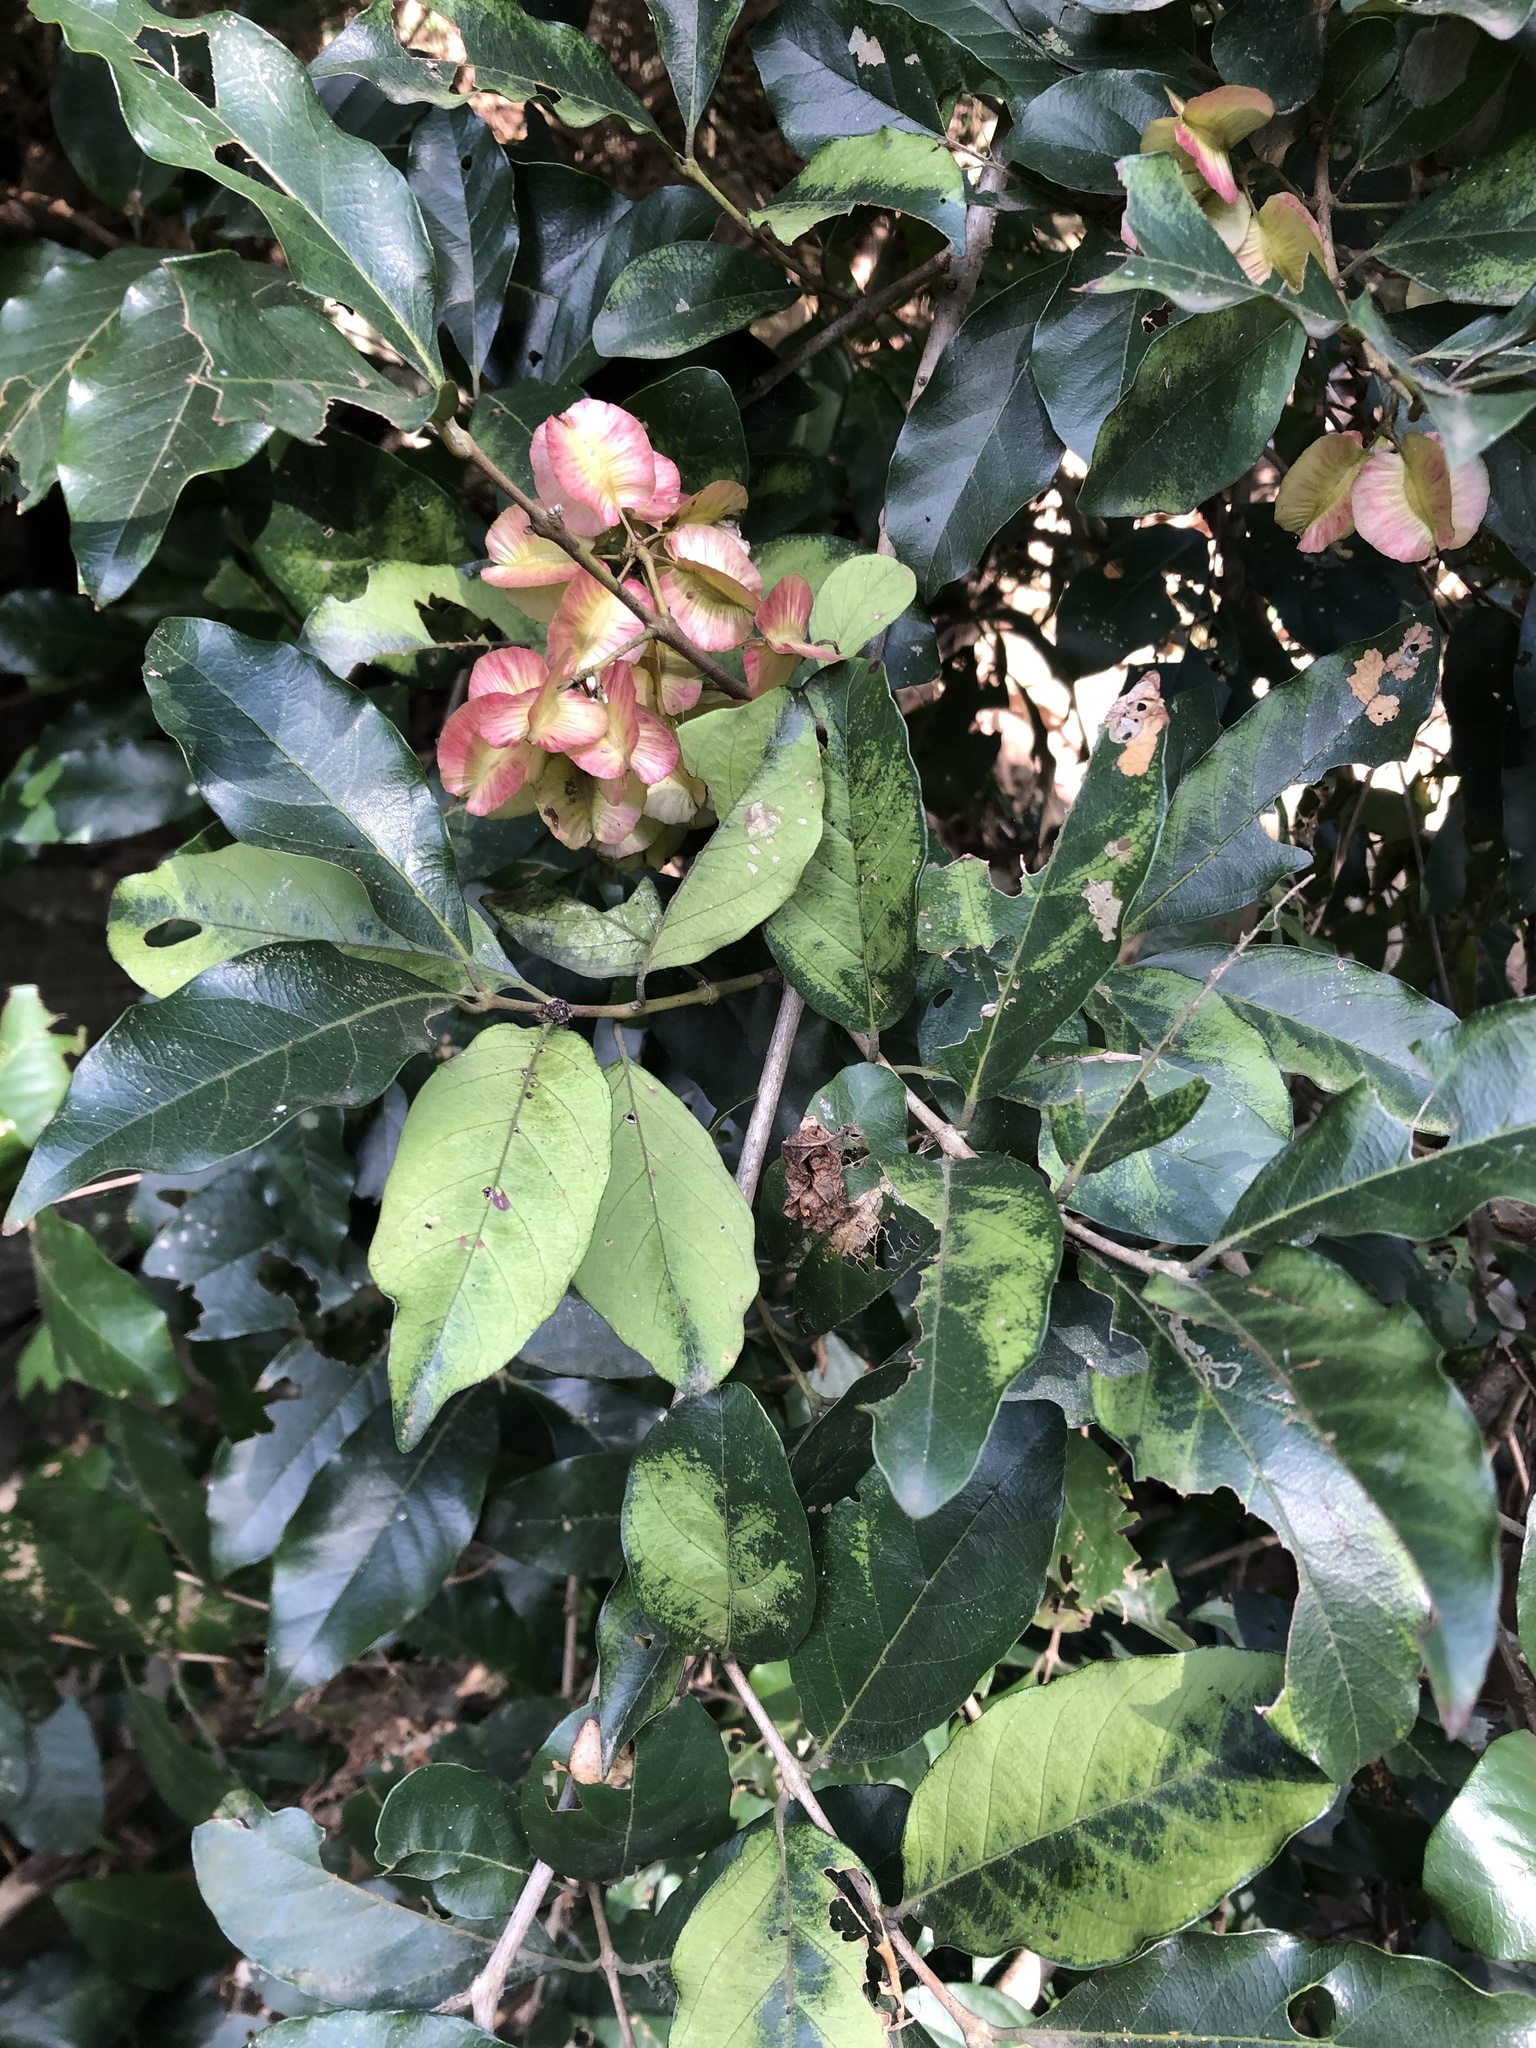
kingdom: Plantae
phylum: Tracheophyta
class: Magnoliopsida
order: Myrtales
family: Combretaceae
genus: Combretum
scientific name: Combretum kraussii
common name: Forest bushwillow
